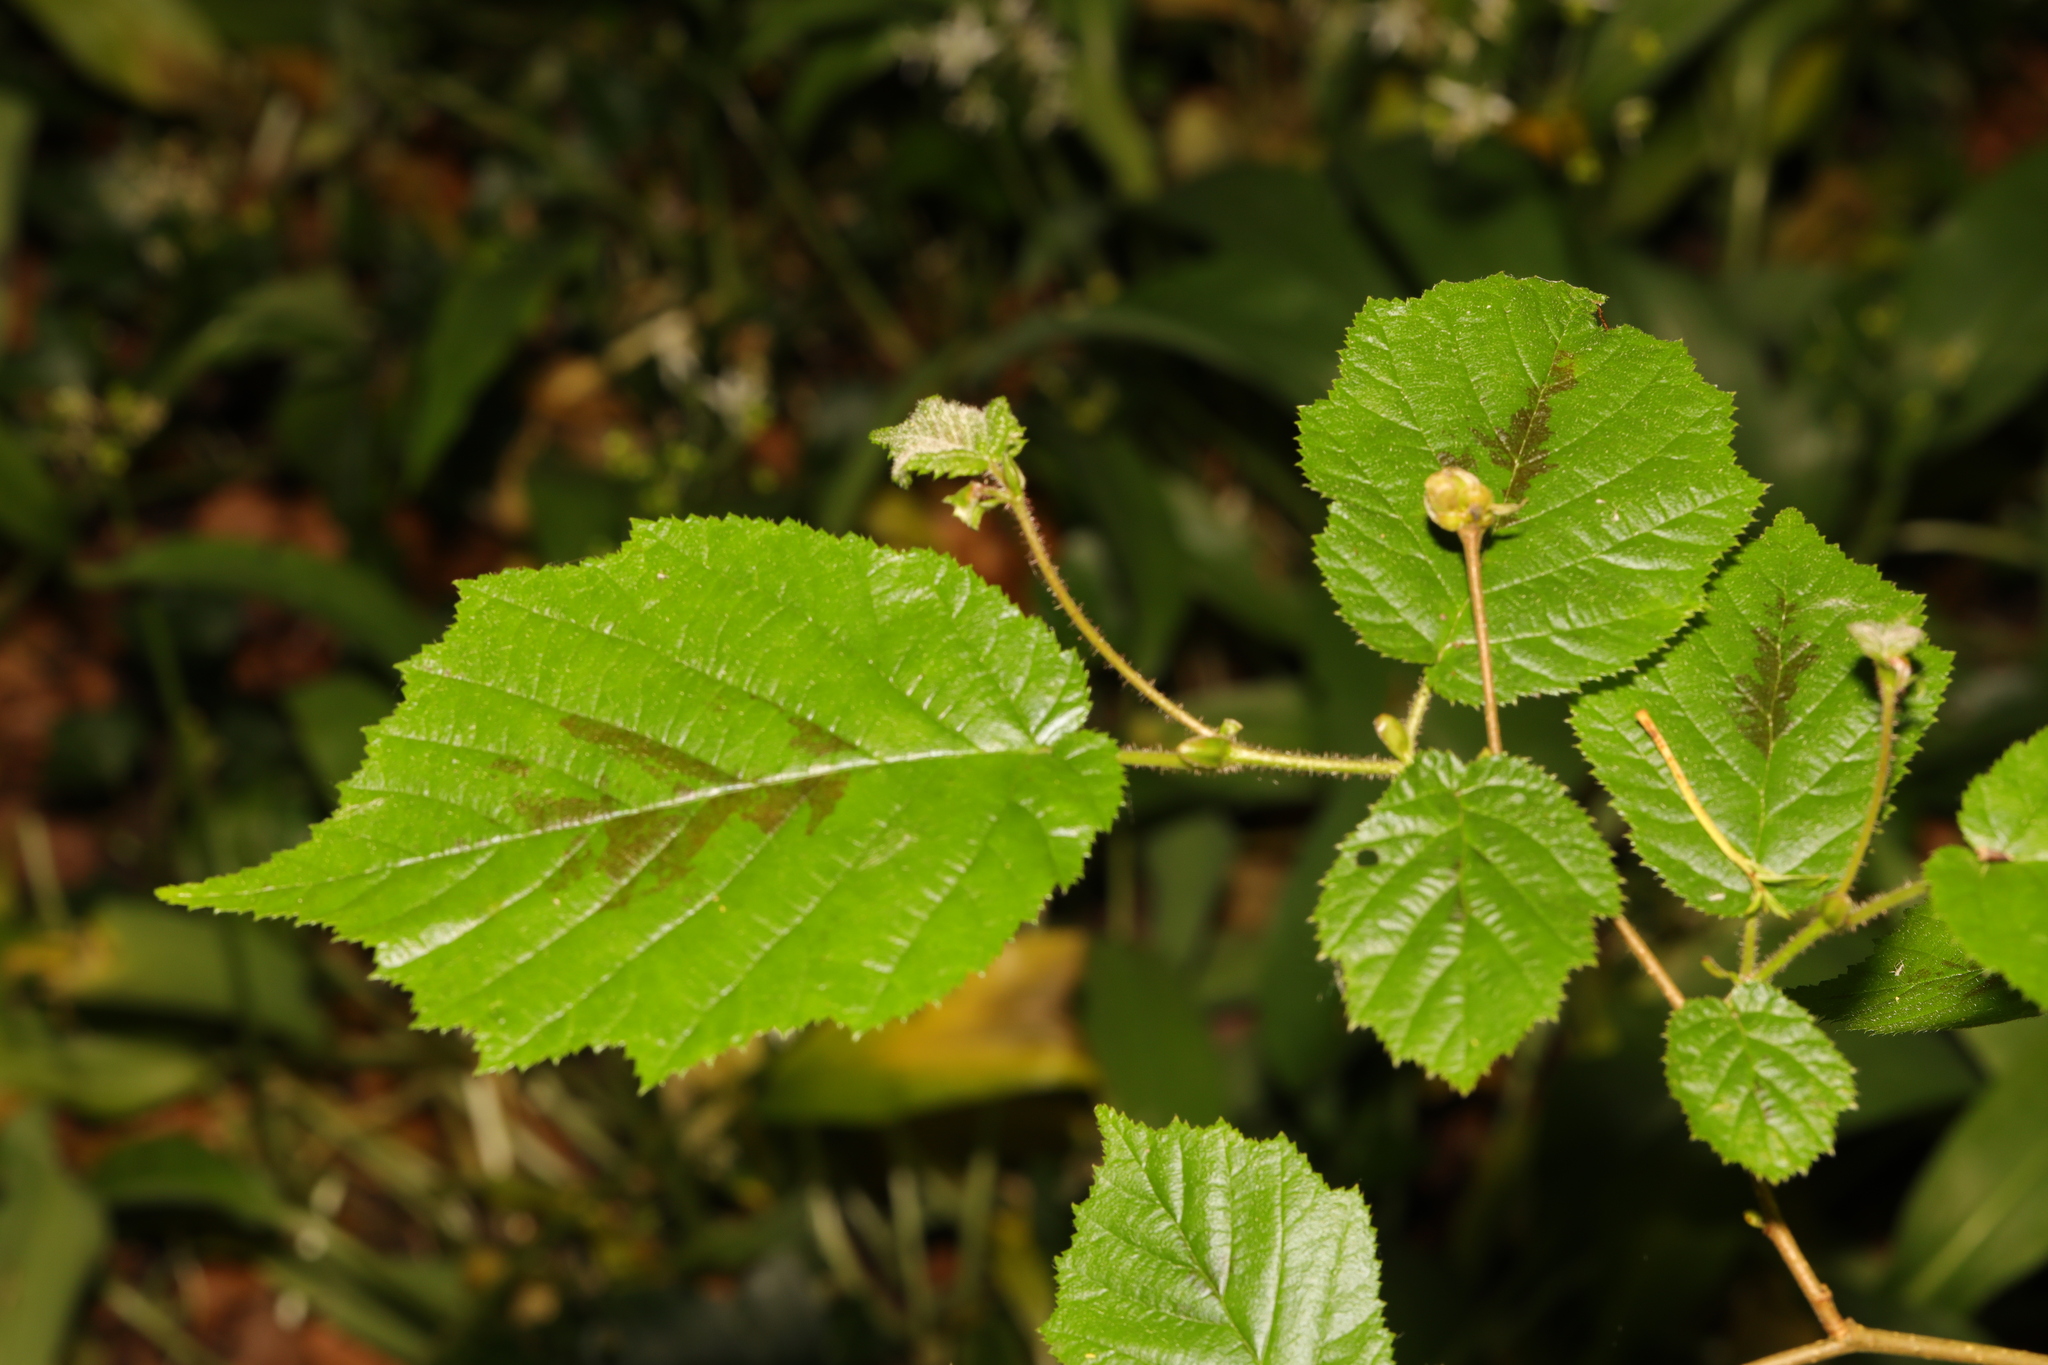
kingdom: Plantae
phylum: Tracheophyta
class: Magnoliopsida
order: Fagales
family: Betulaceae
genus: Corylus
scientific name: Corylus avellana
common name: European hazel
